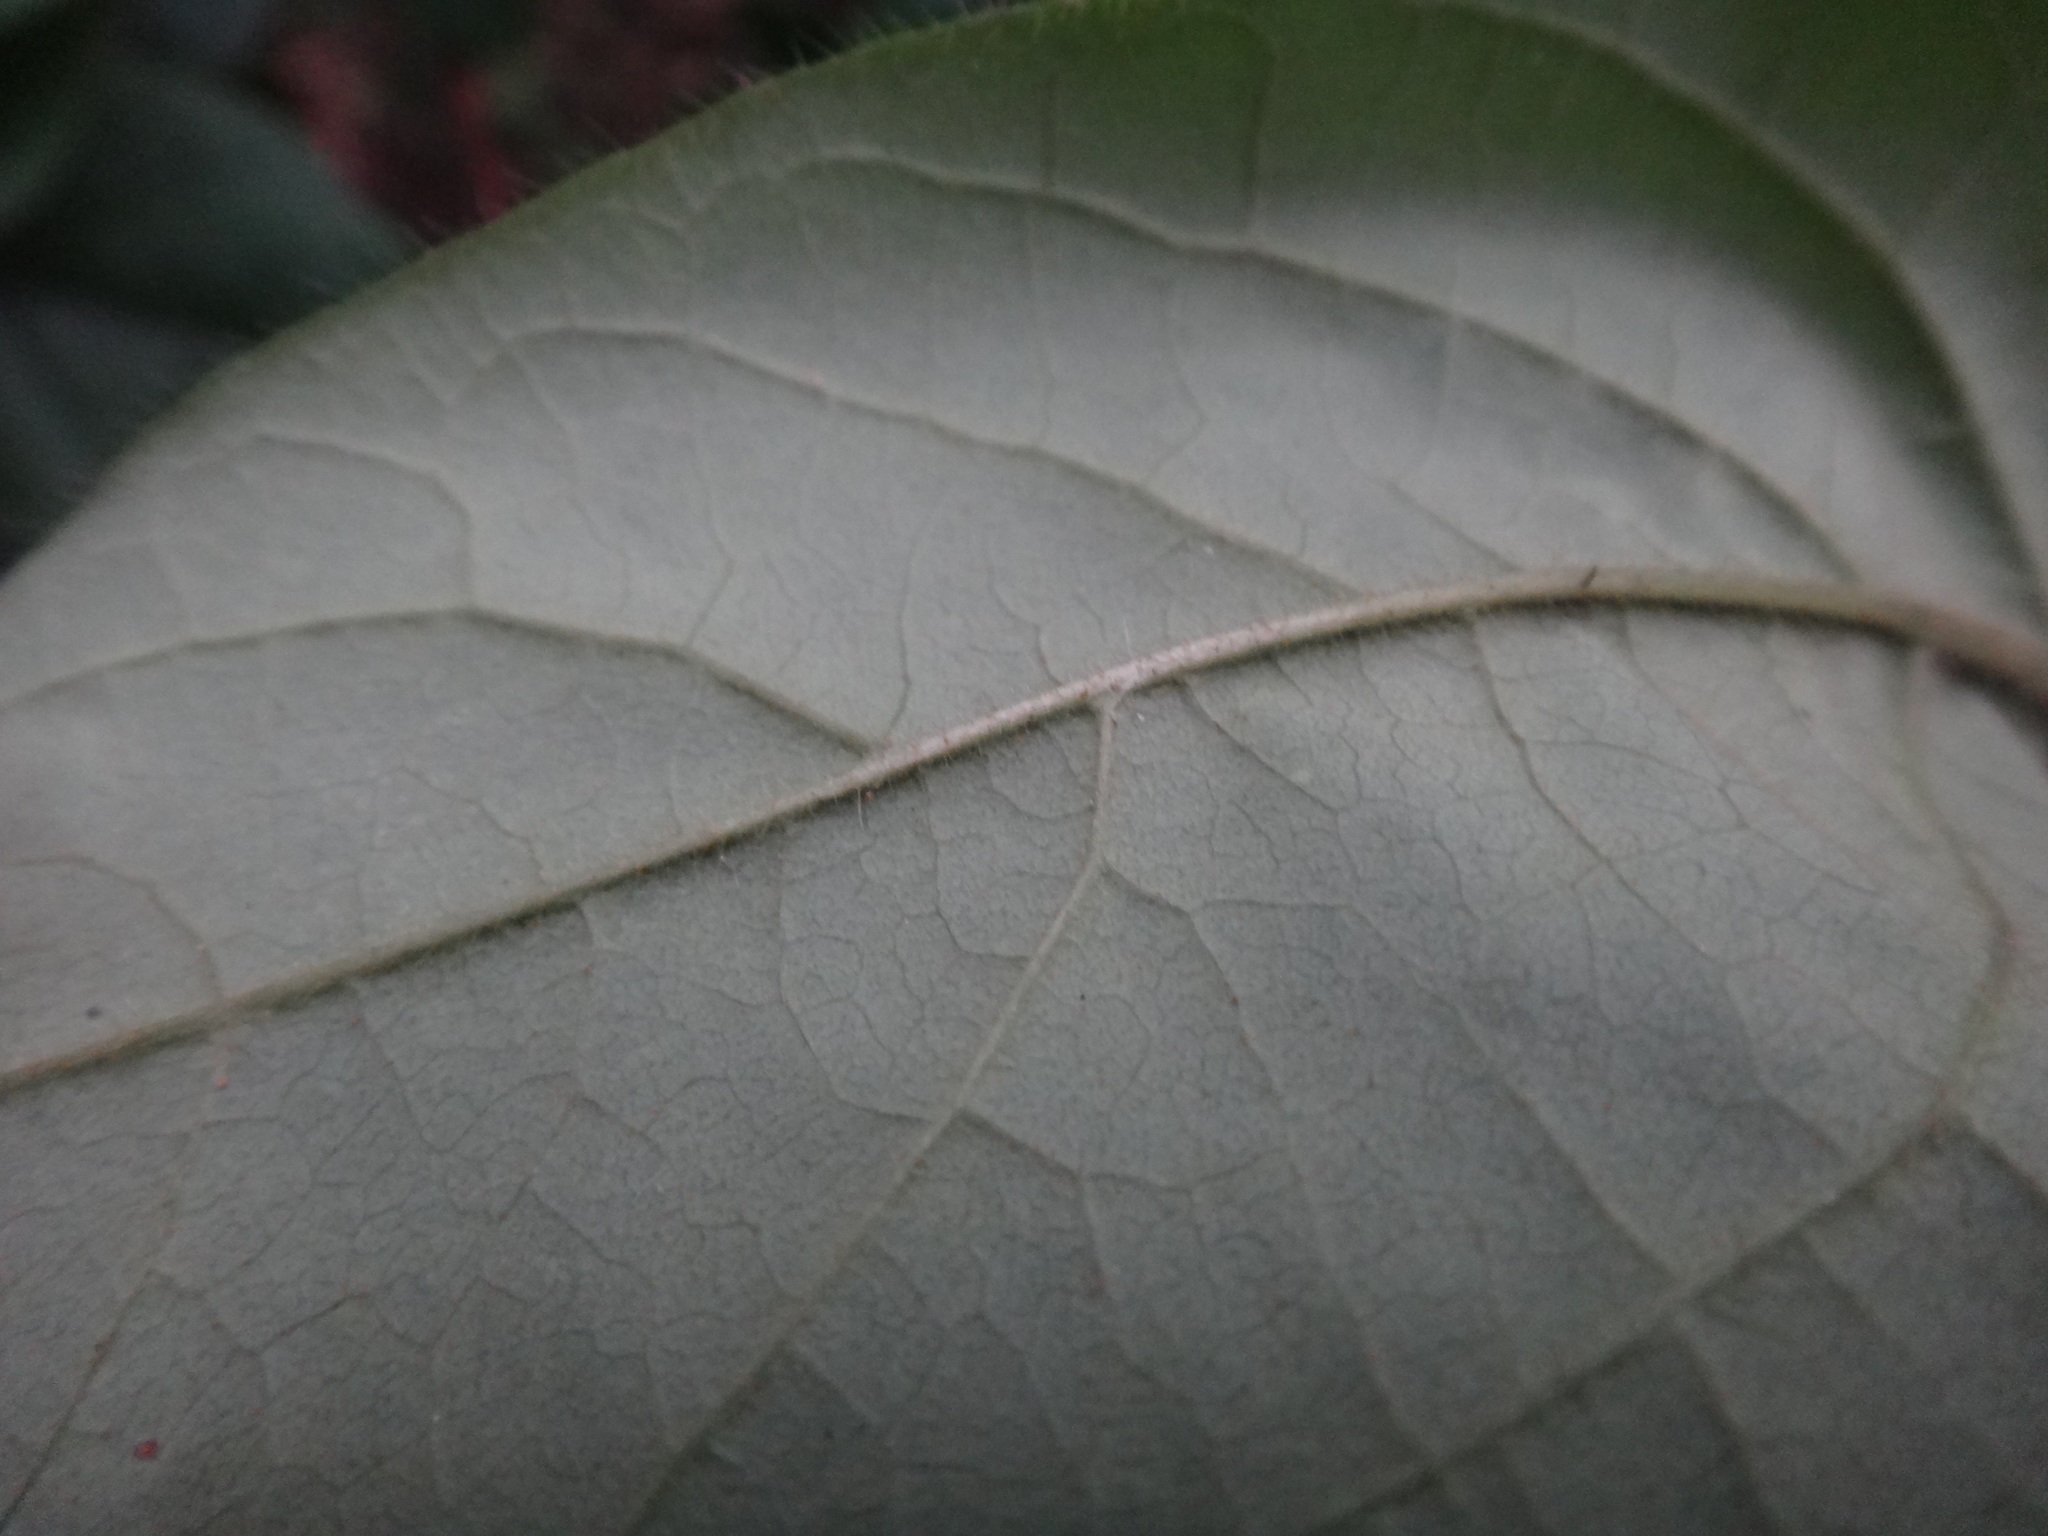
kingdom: Plantae
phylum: Tracheophyta
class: Magnoliopsida
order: Dipsacales
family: Caprifoliaceae
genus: Lonicera
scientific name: Lonicera hypoglauca
